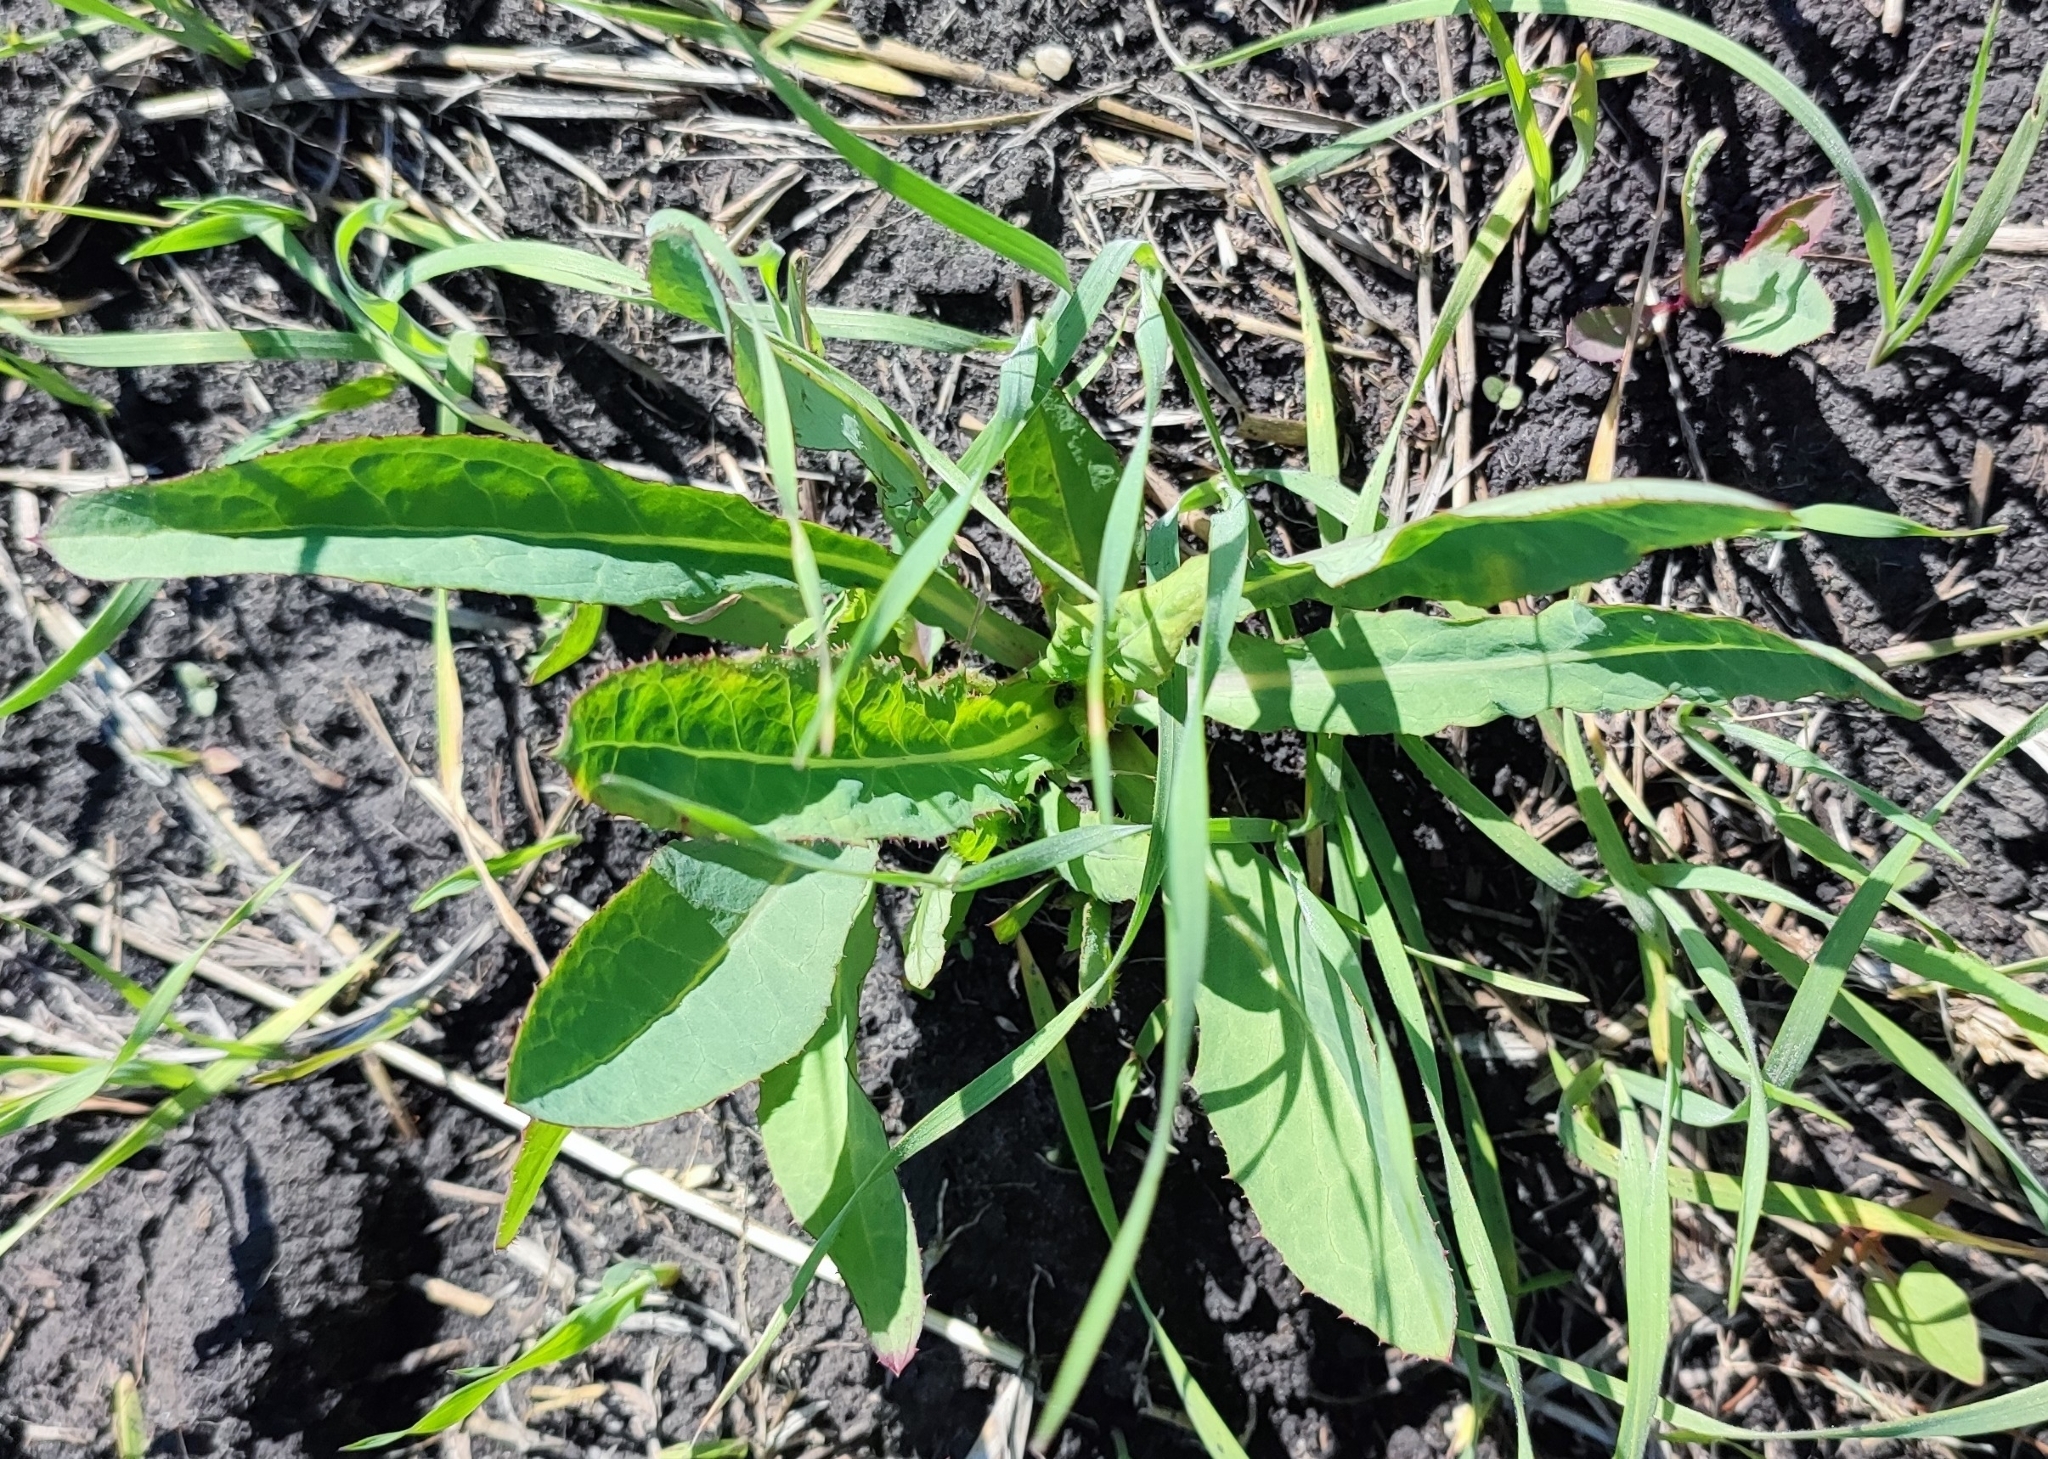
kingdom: Plantae
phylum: Tracheophyta
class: Magnoliopsida
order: Asterales
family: Asteraceae
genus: Sonchus
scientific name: Sonchus arvensis
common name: Perennial sow-thistle
